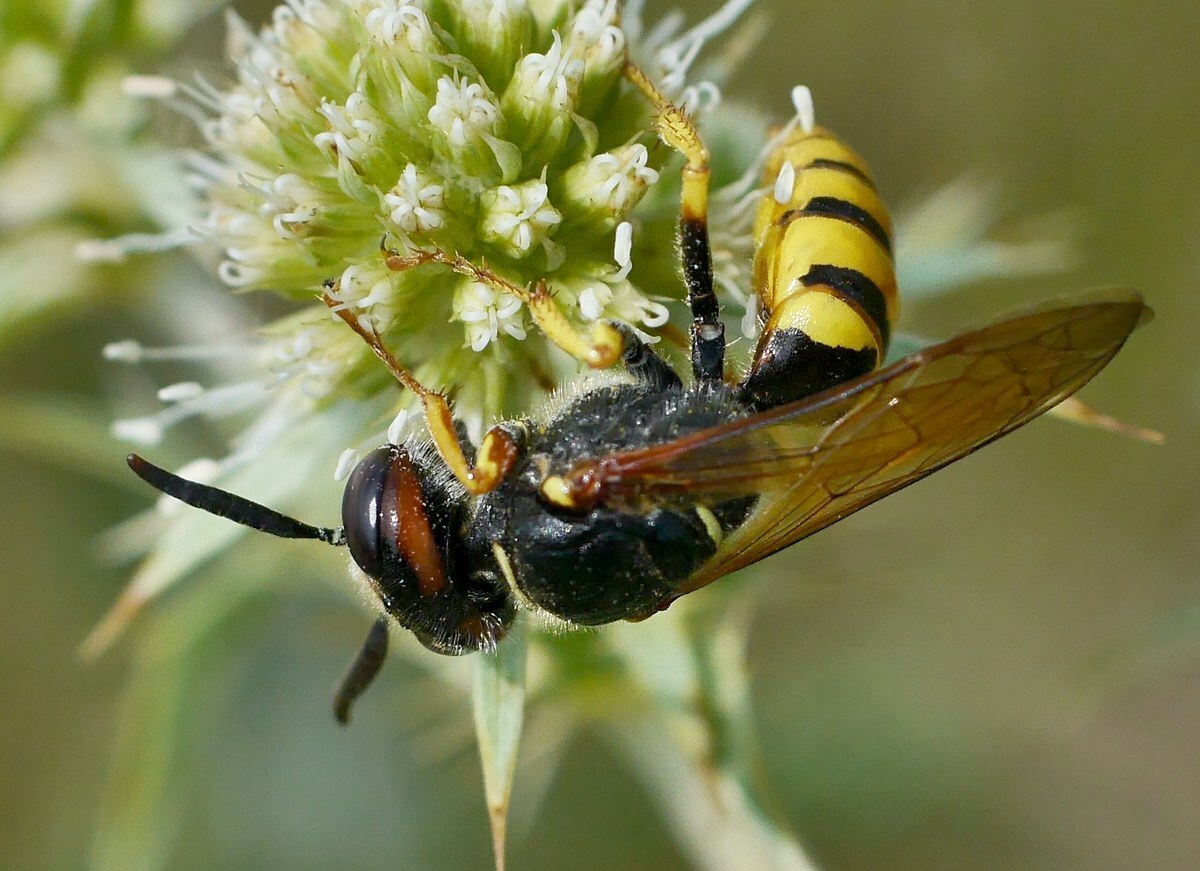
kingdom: Animalia
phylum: Arthropoda
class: Insecta
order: Hymenoptera
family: Crabronidae
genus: Philanthus
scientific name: Philanthus triangulum
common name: Bee wolf
